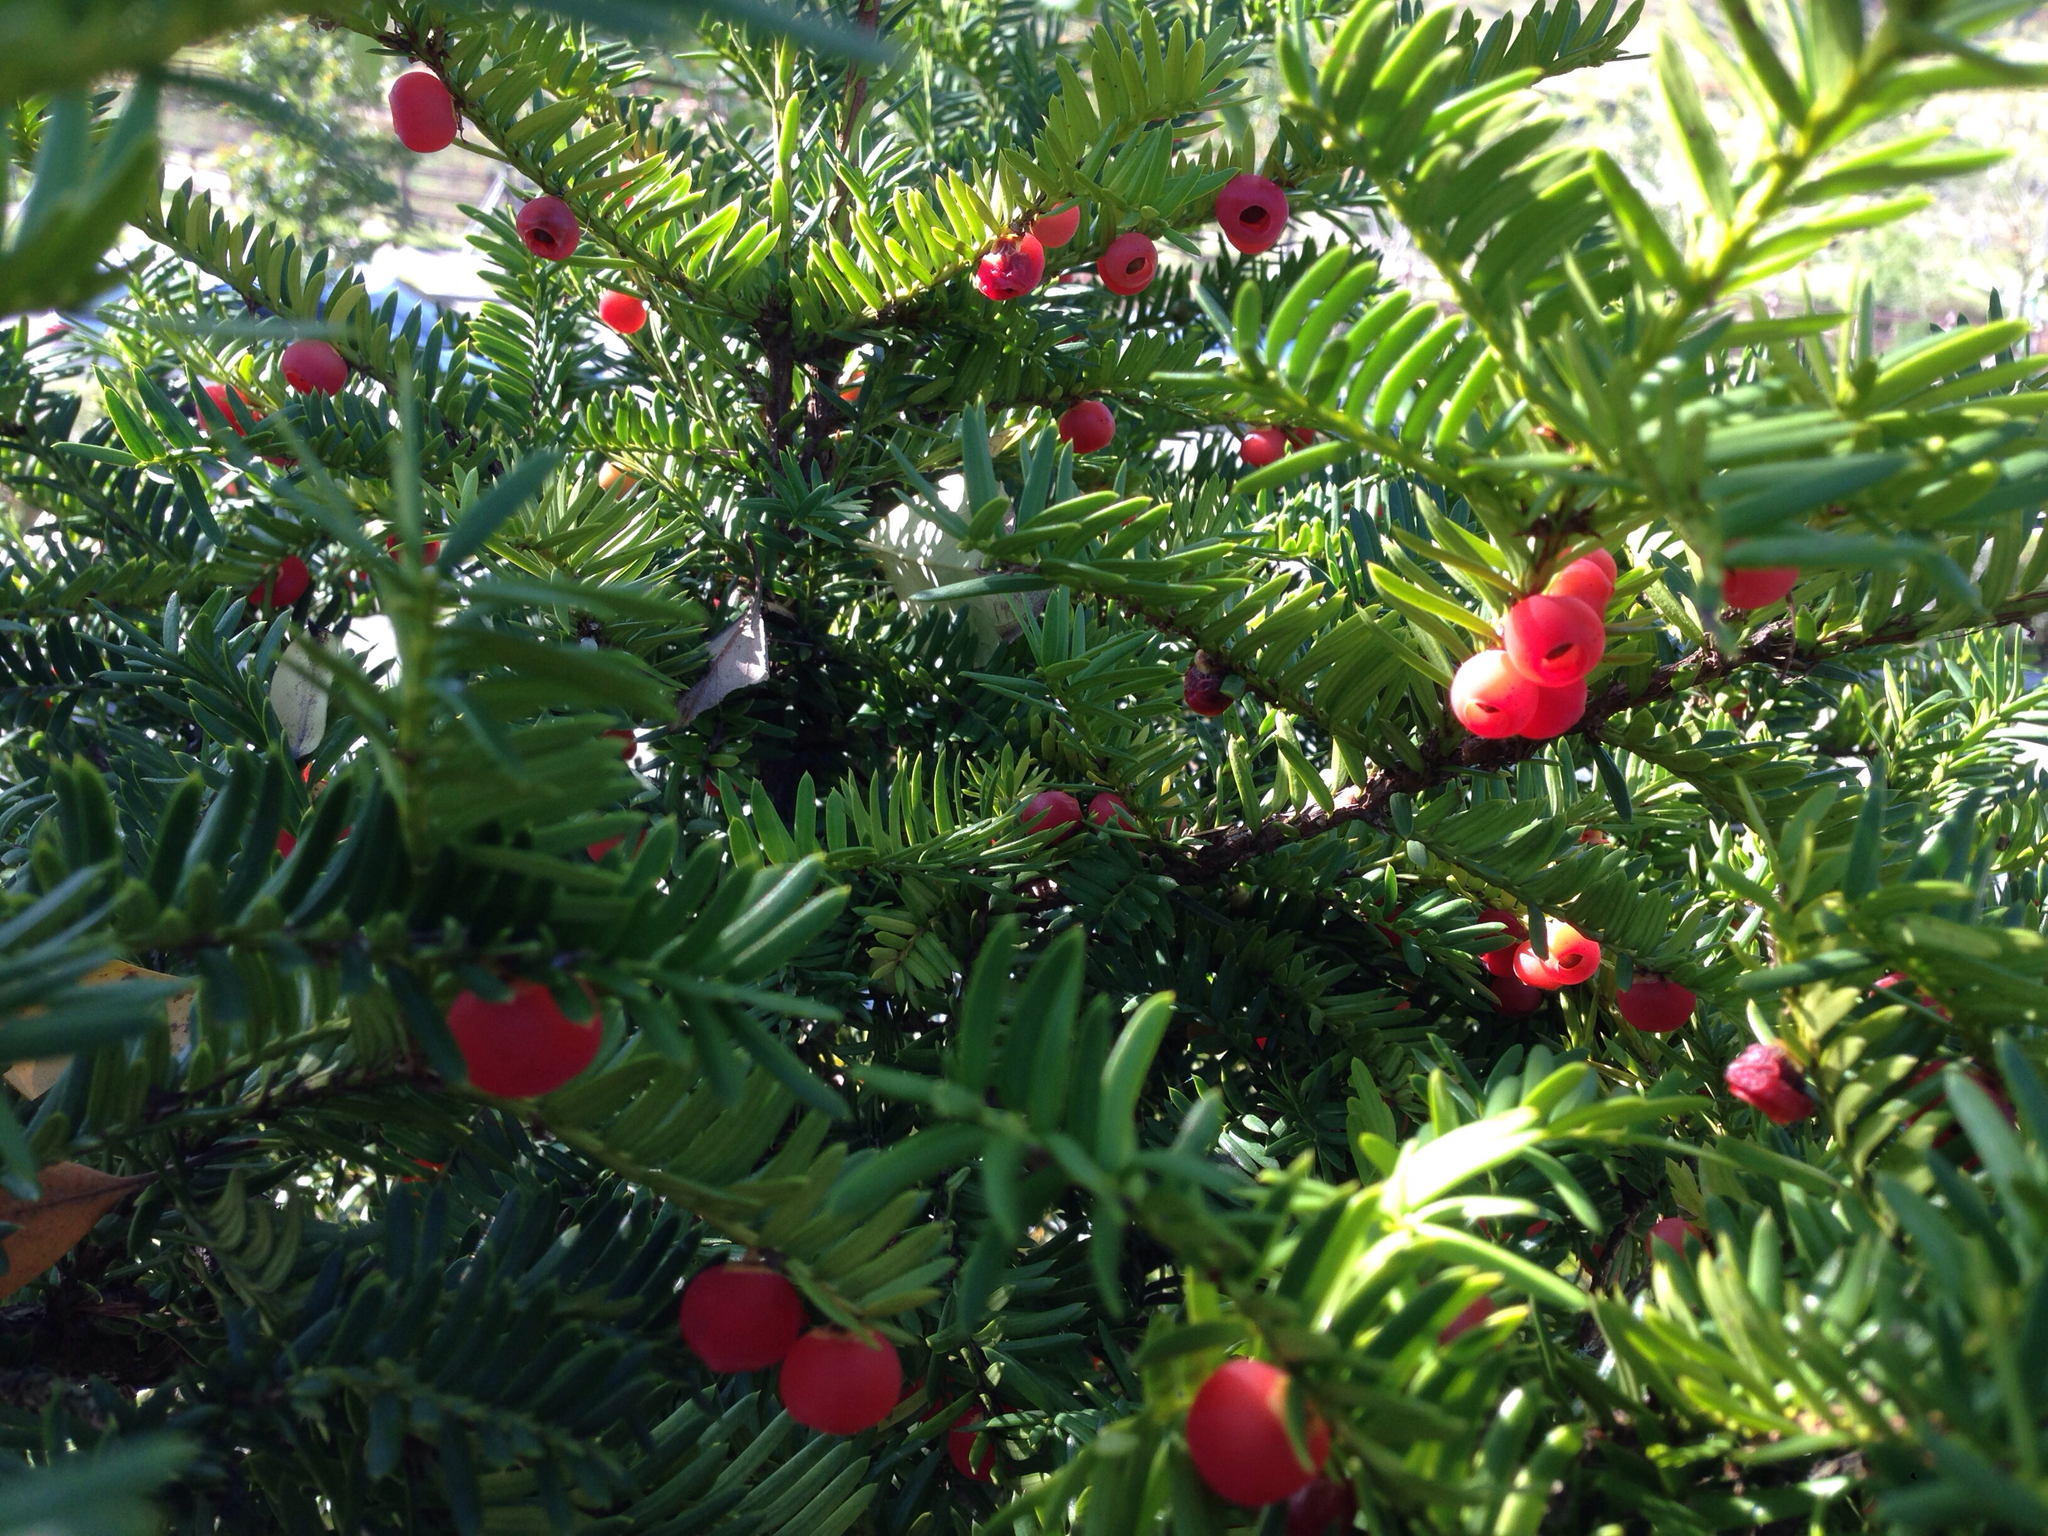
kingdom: Plantae
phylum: Tracheophyta
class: Pinopsida
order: Pinales
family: Taxaceae
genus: Taxus
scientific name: Taxus cuspidata
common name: Japanese yew
